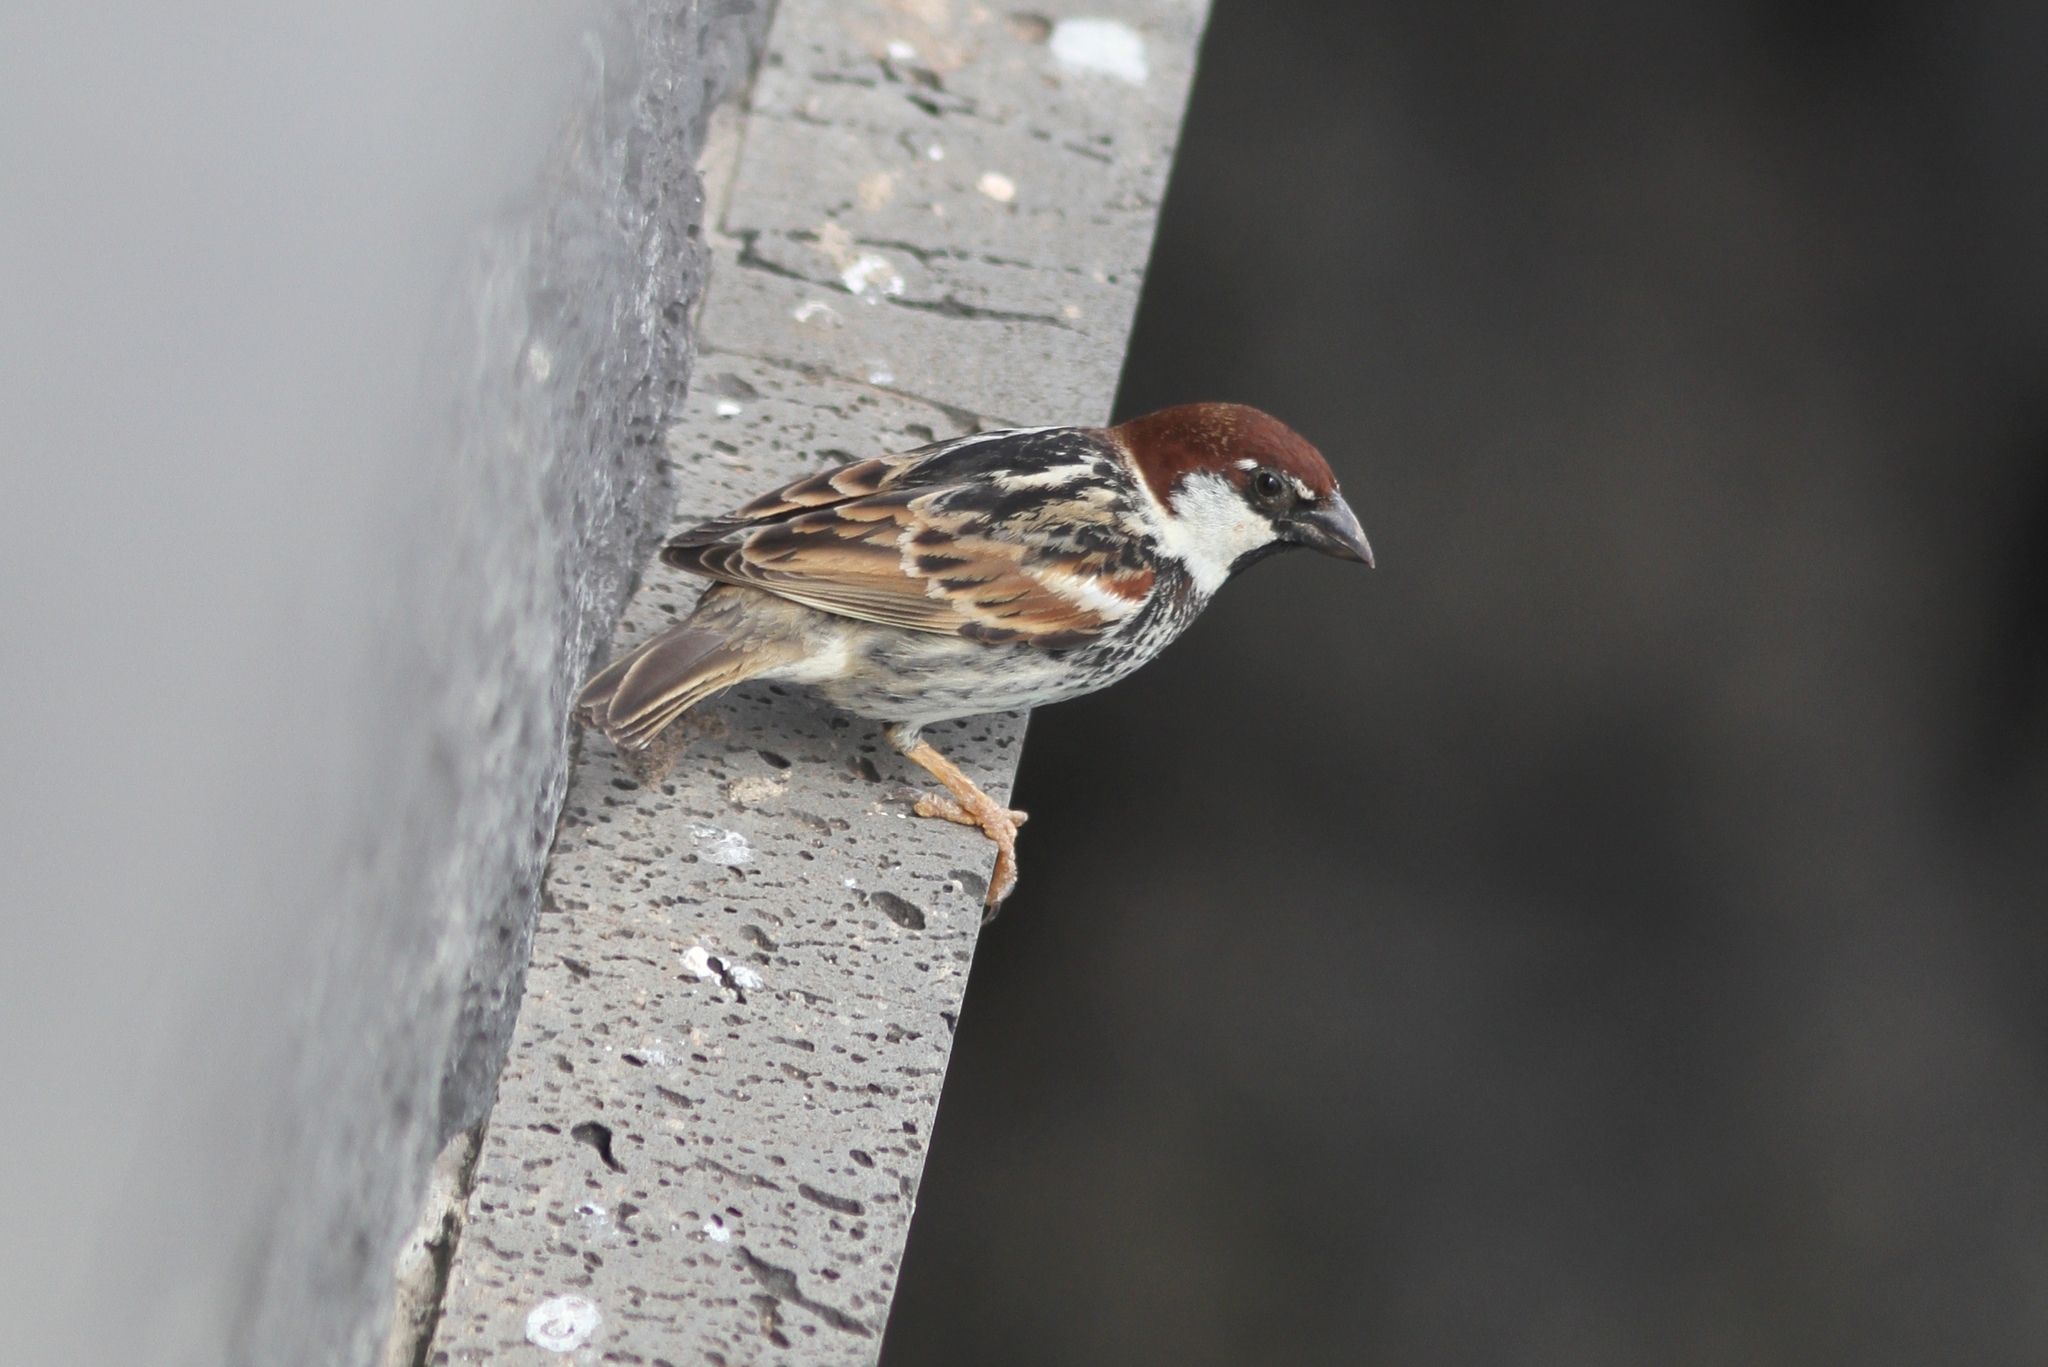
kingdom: Animalia
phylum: Chordata
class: Aves
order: Passeriformes
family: Passeridae
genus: Passer
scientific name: Passer hispaniolensis
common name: Spanish sparrow
